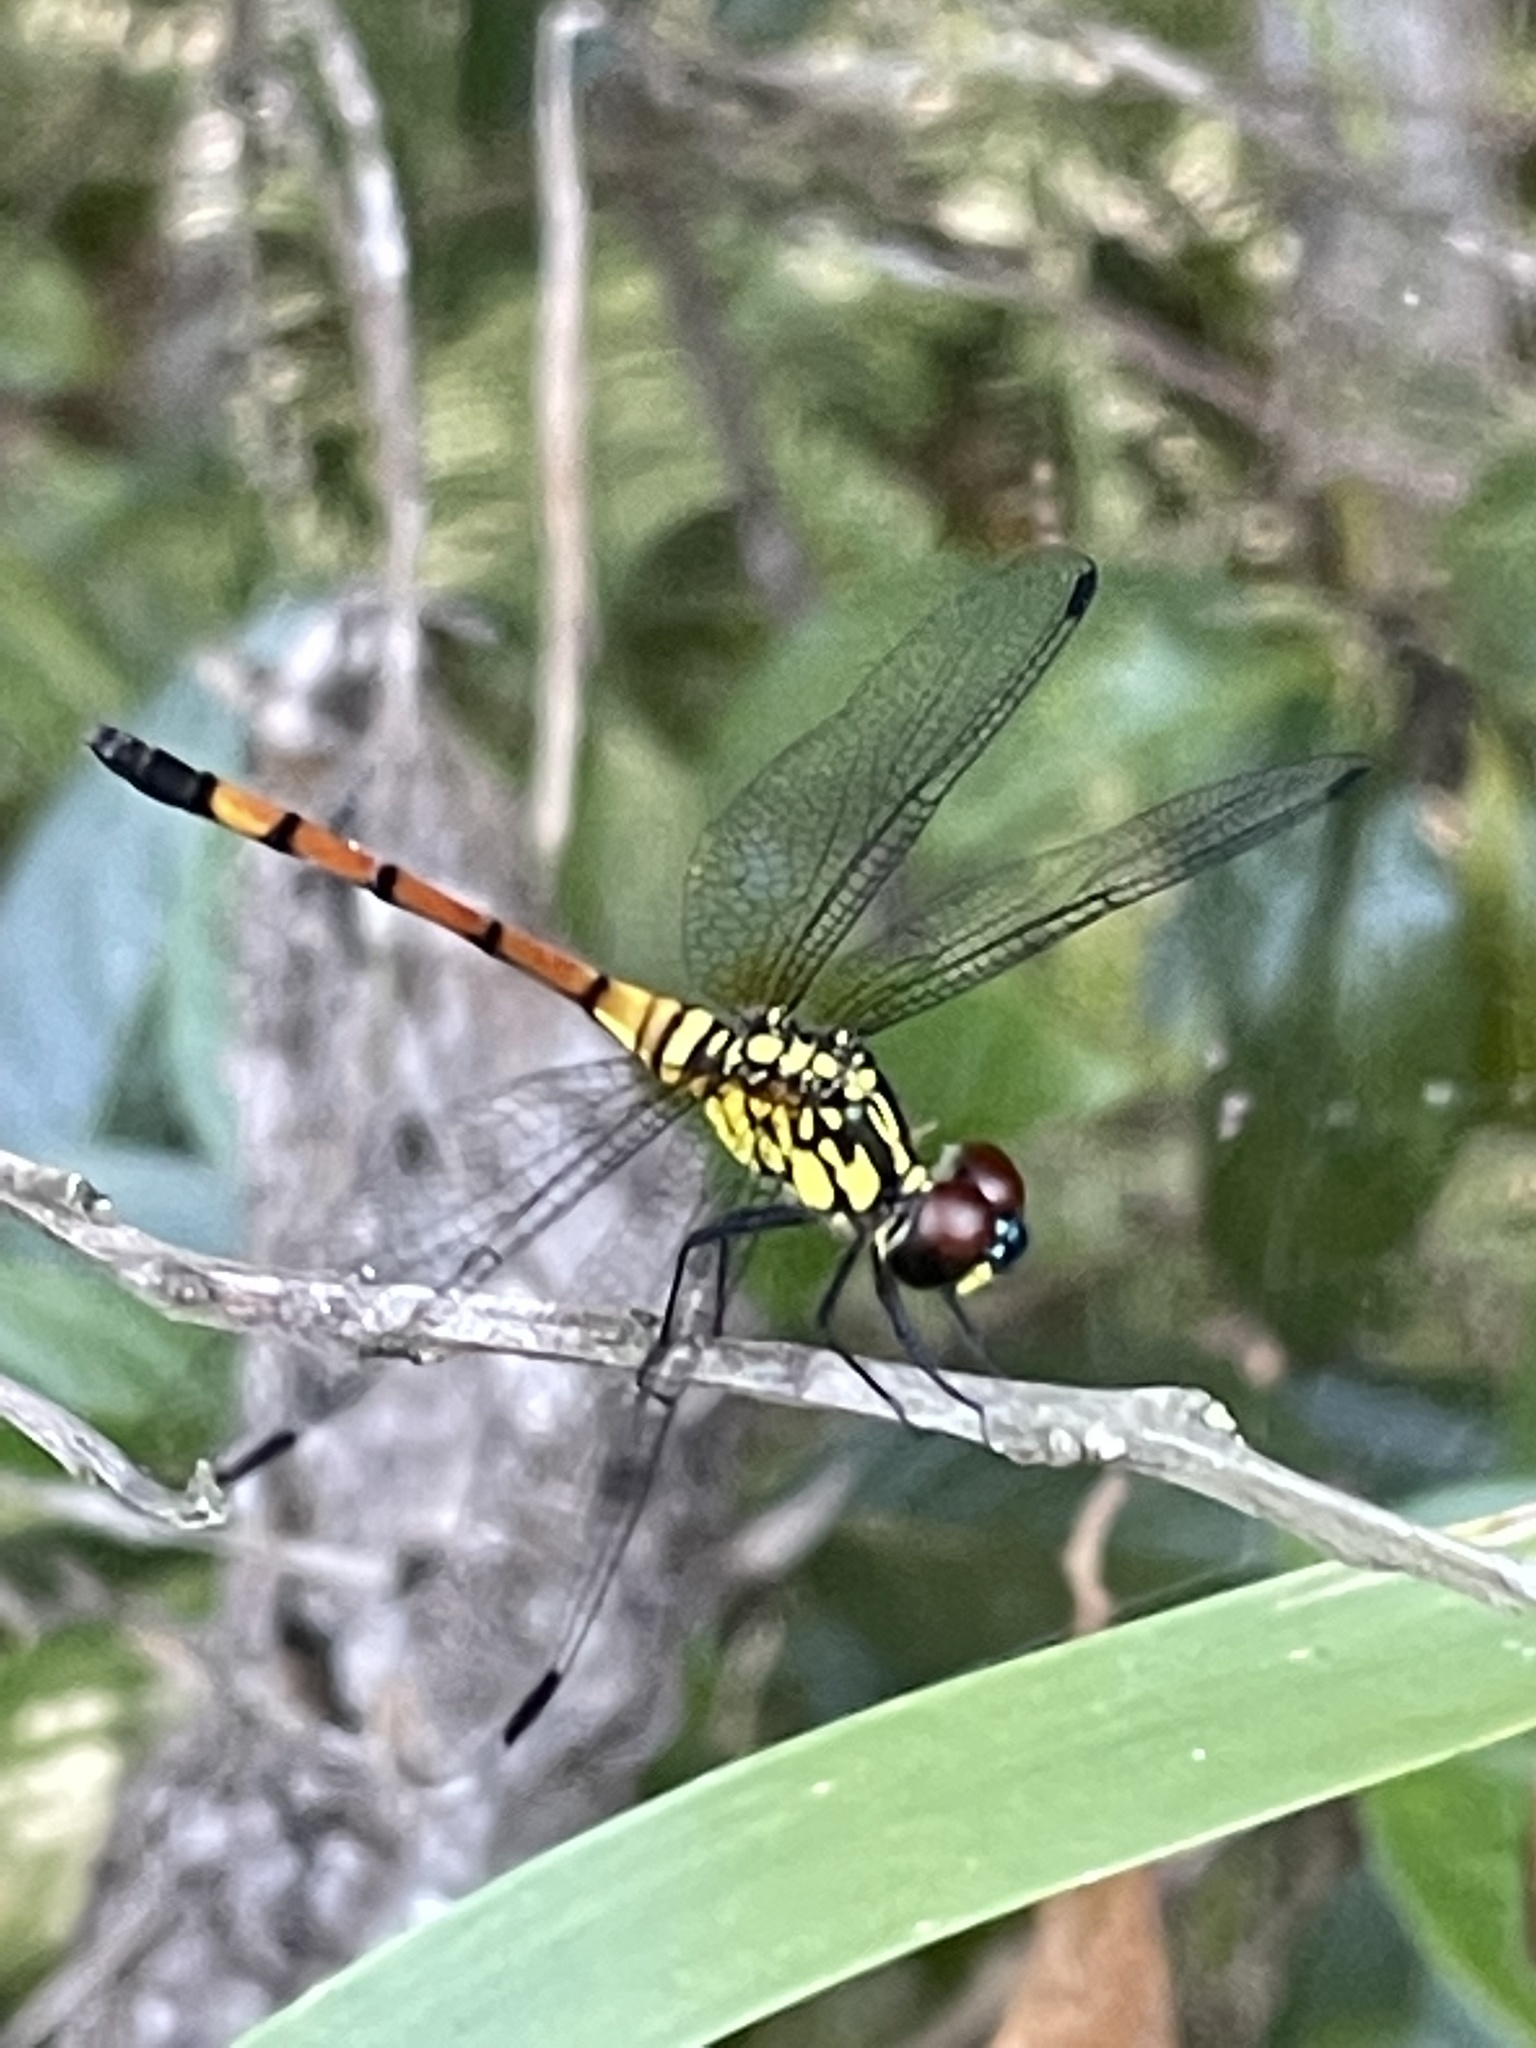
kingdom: Animalia
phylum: Arthropoda
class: Insecta
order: Odonata
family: Libellulidae
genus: Agrionoptera
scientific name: Agrionoptera insignis
